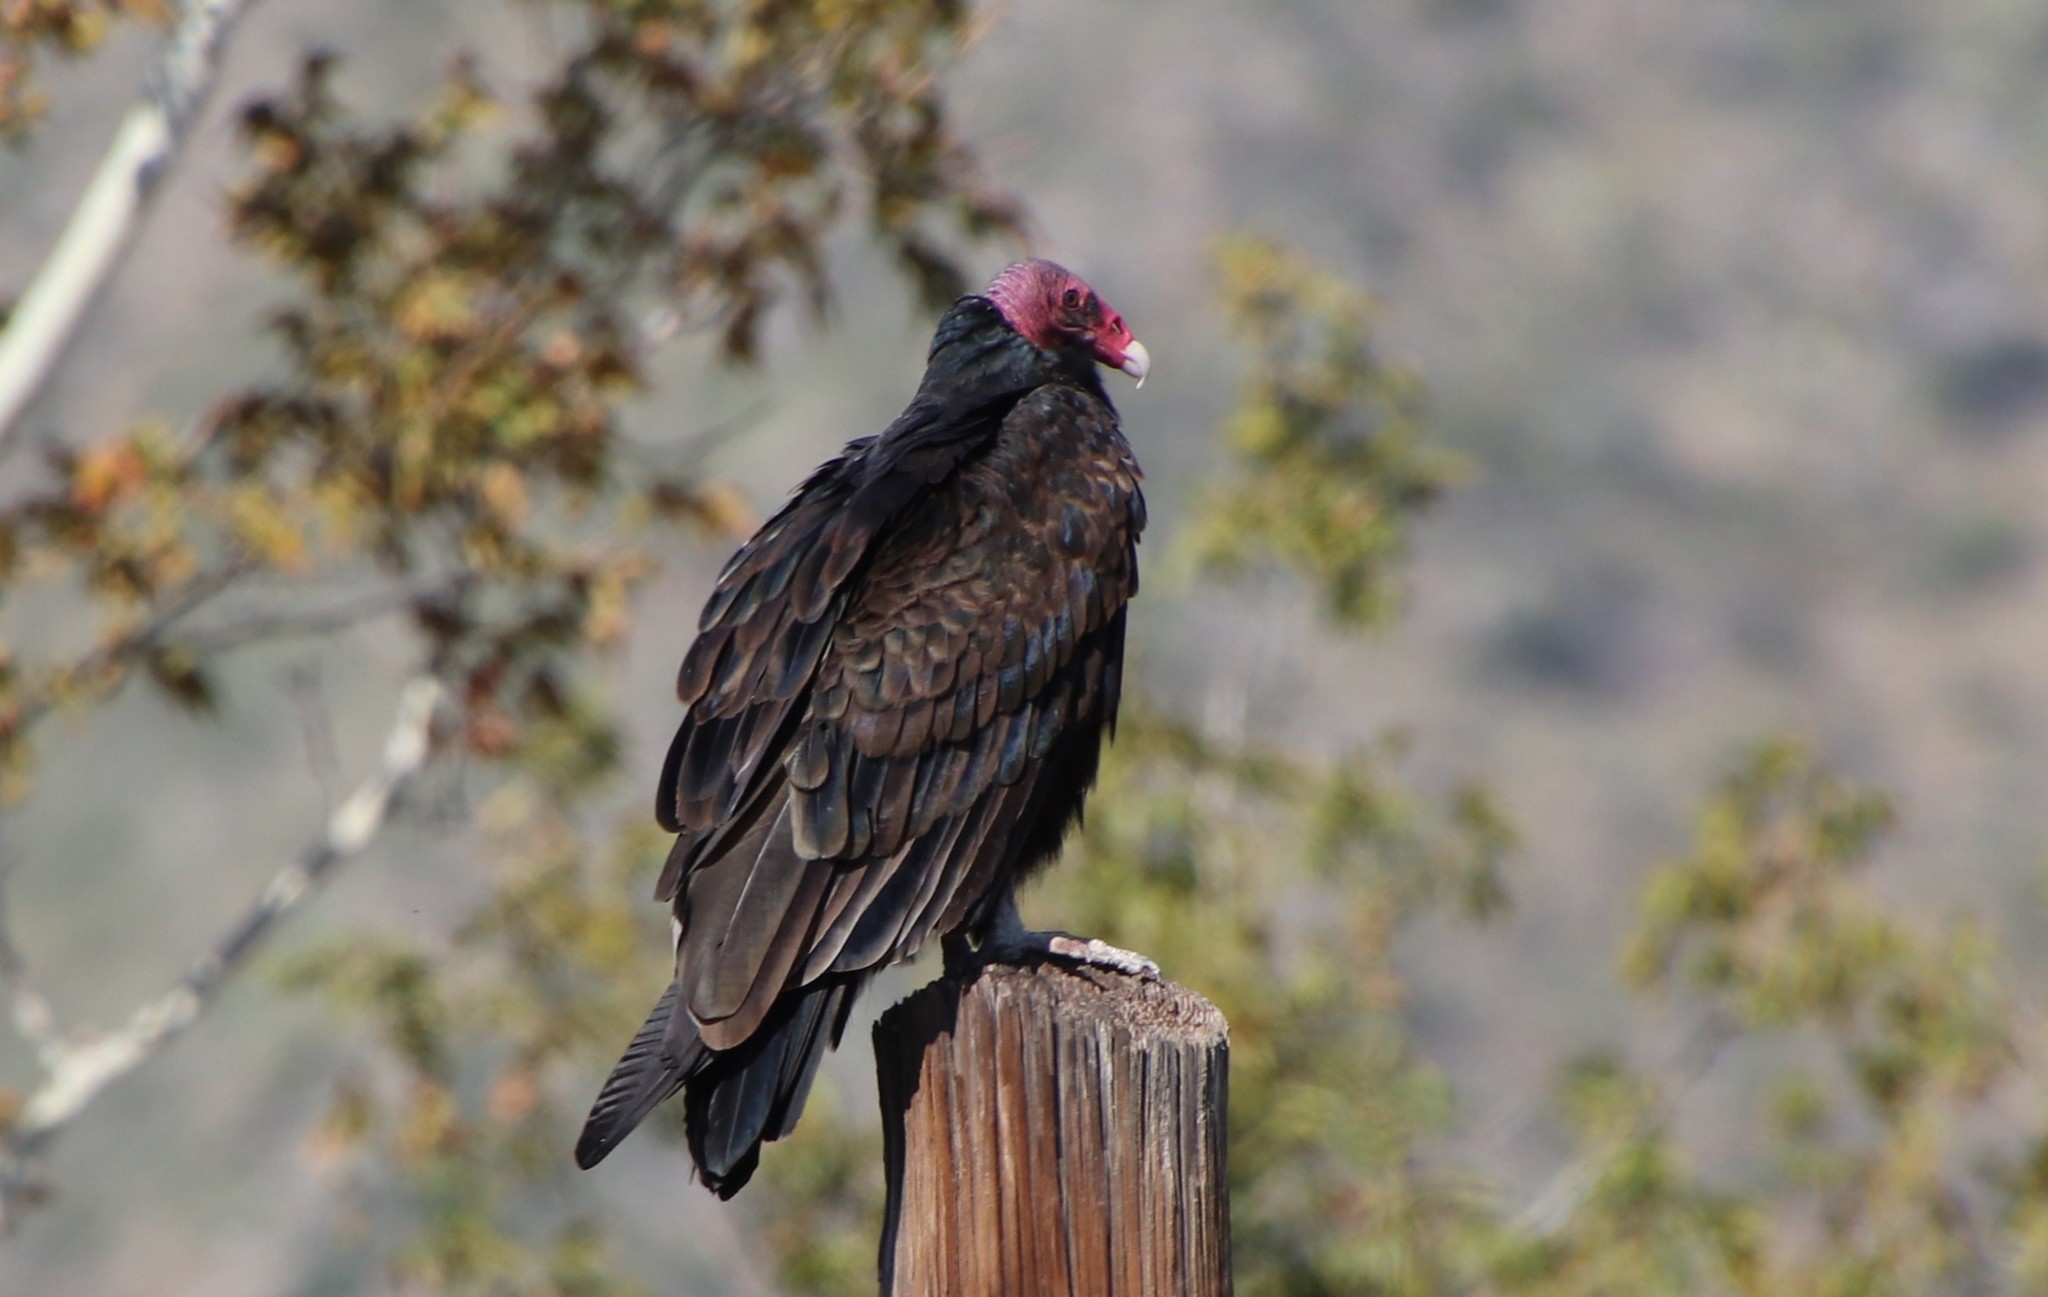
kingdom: Animalia
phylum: Chordata
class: Aves
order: Accipitriformes
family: Cathartidae
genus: Cathartes
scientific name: Cathartes aura
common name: Turkey vulture
